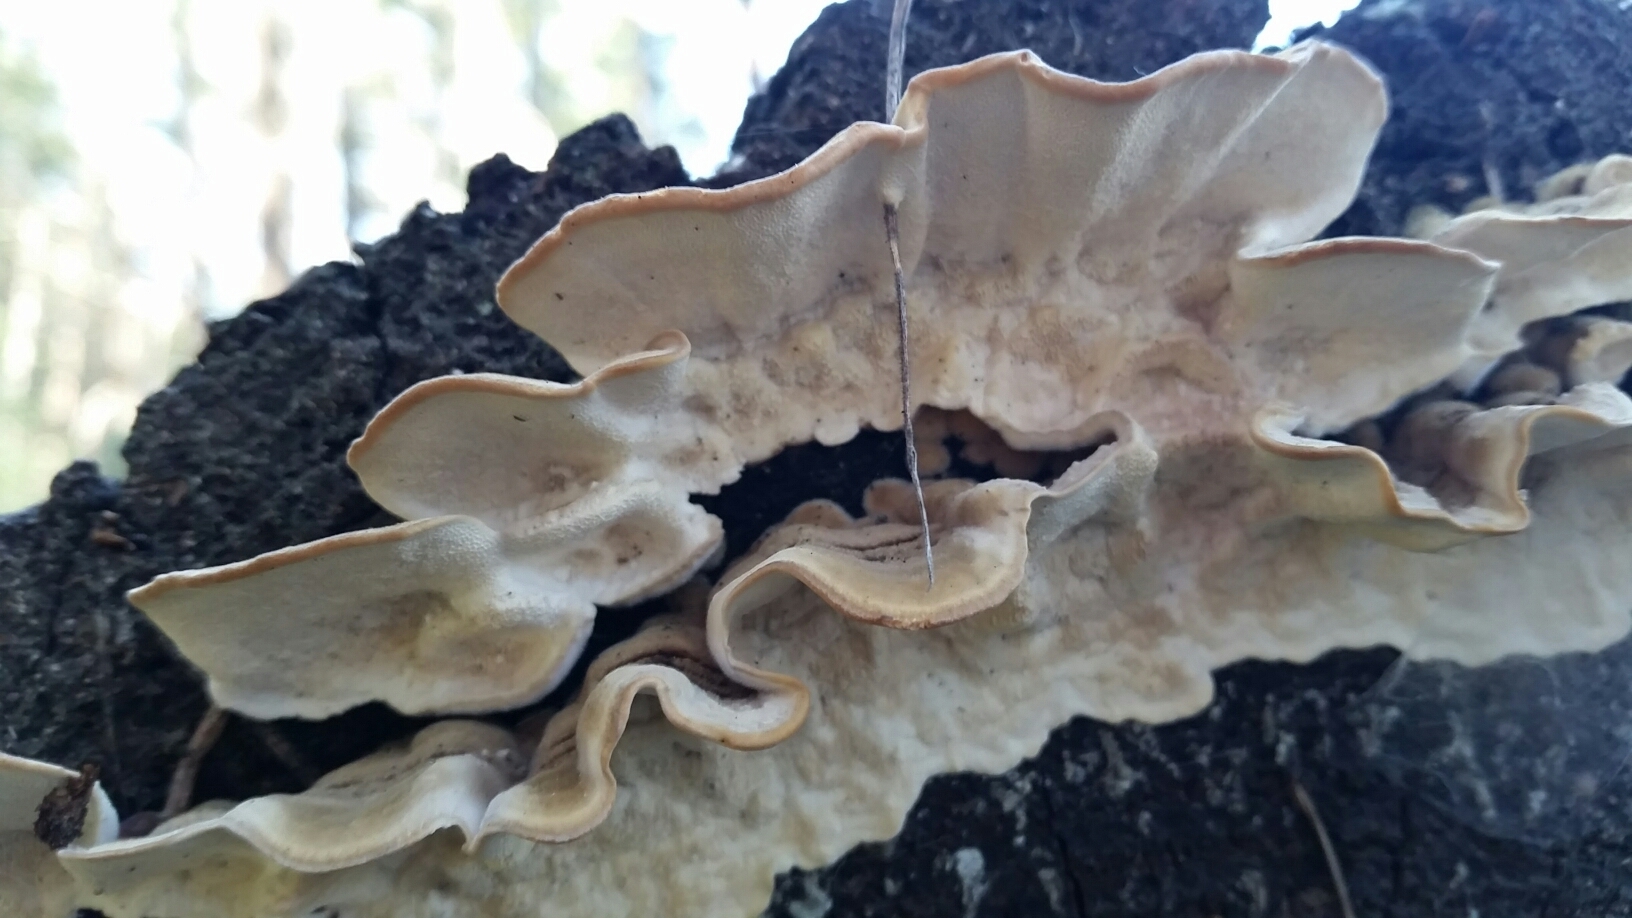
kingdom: Fungi
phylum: Basidiomycota
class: Agaricomycetes
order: Polyporales
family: Polyporaceae
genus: Trametes
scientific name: Trametes versicolor
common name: Turkeytail
